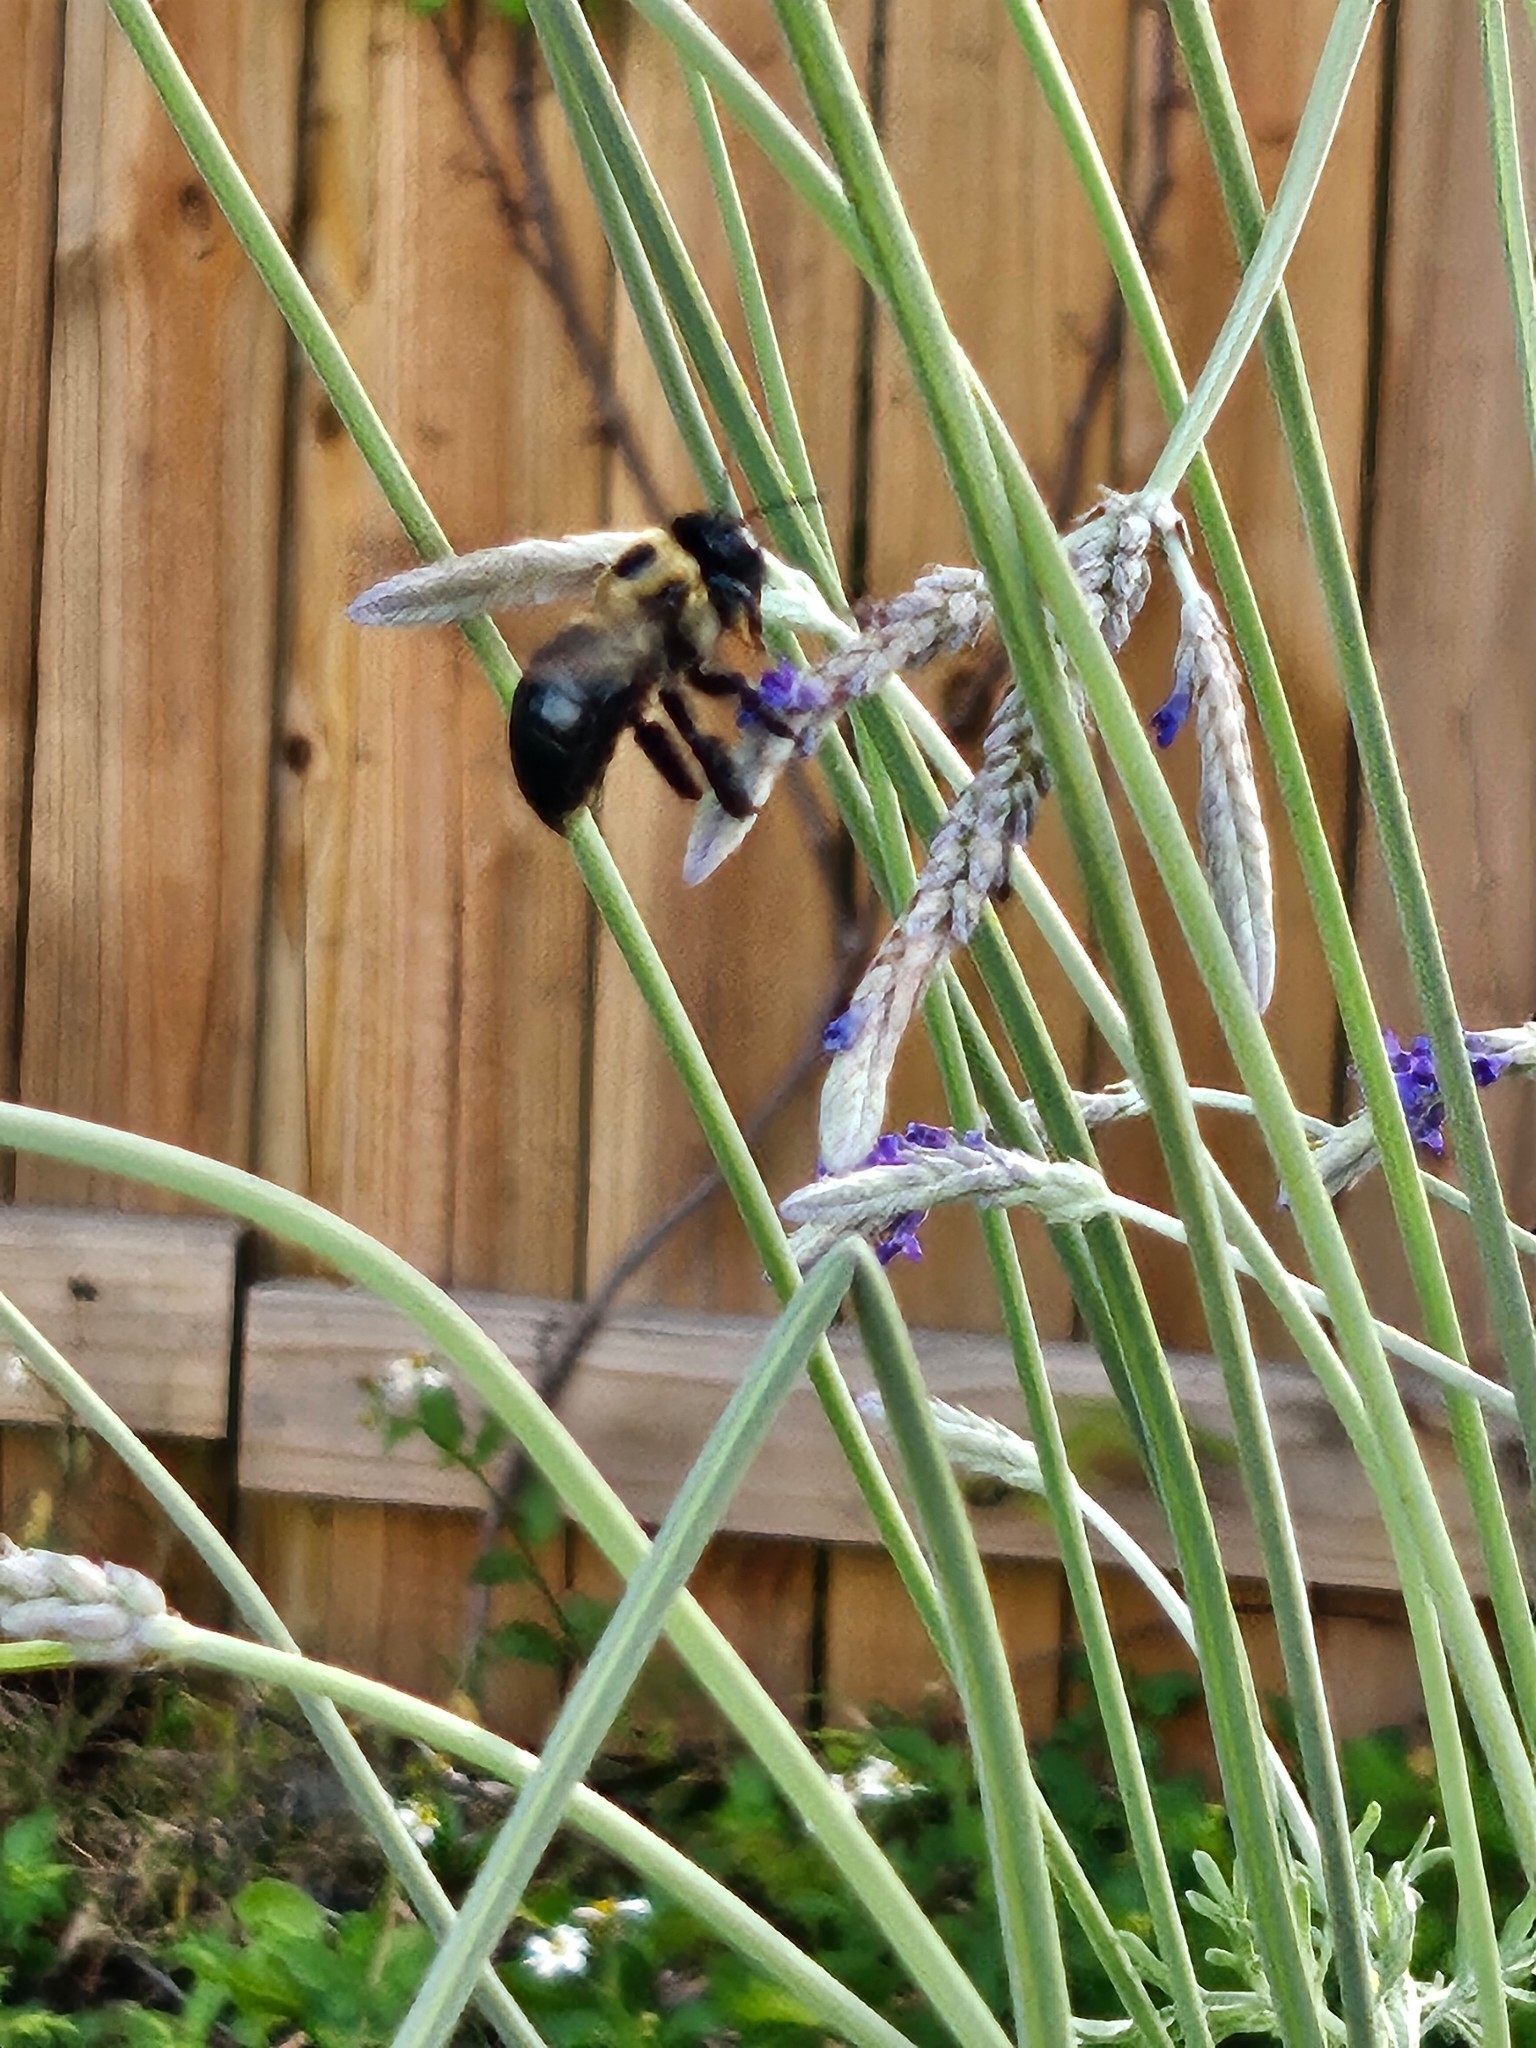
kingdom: Animalia
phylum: Arthropoda
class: Insecta
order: Hymenoptera
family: Apidae
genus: Xylocopa
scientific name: Xylocopa virginica
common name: Carpenter bee
